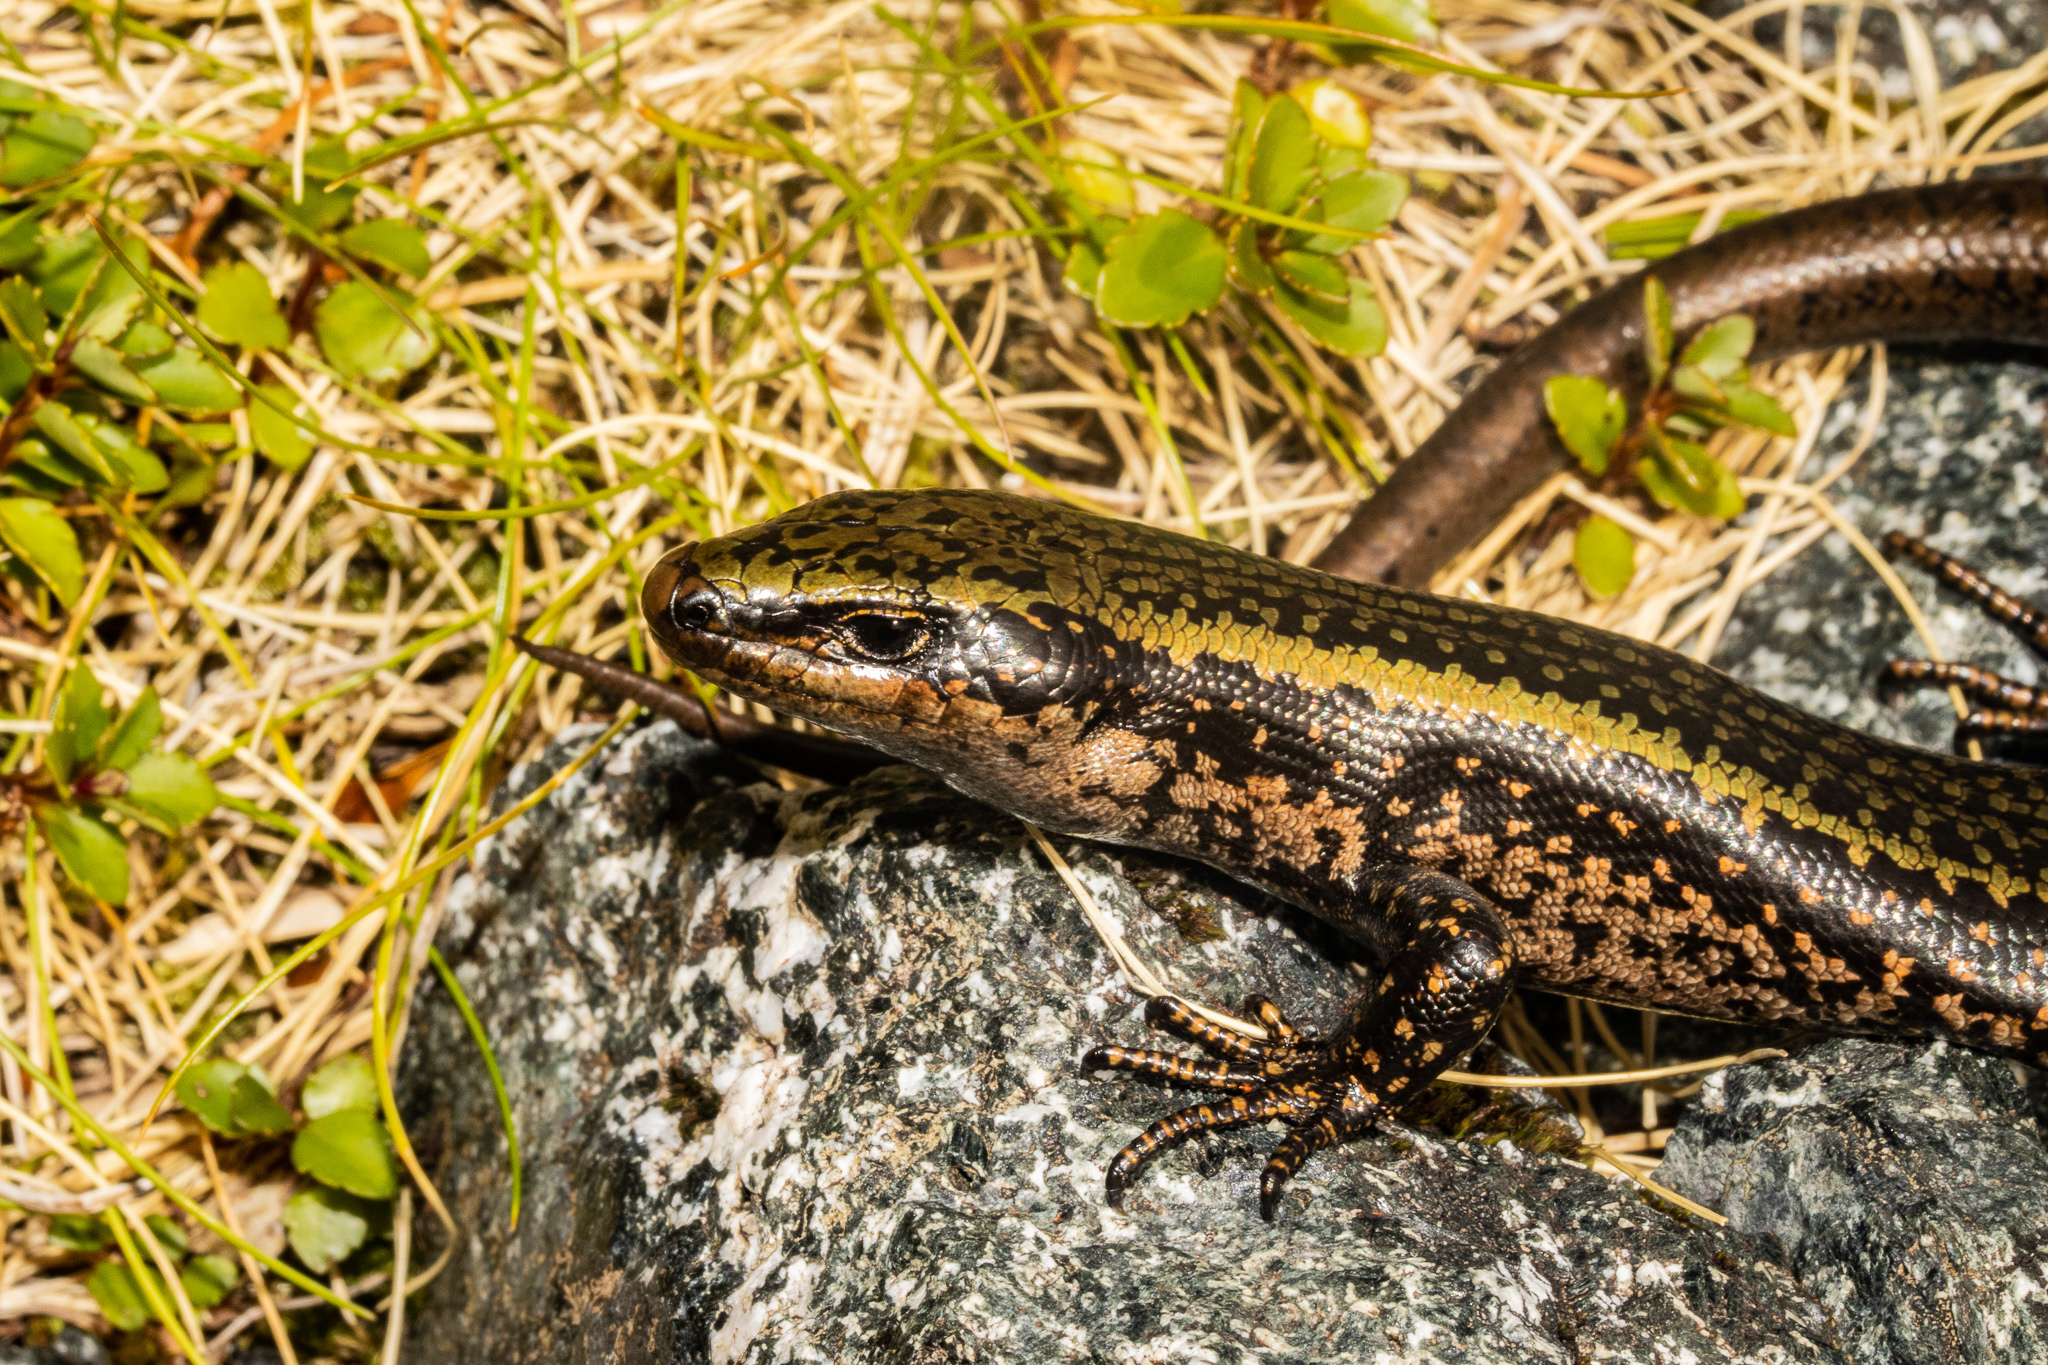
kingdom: Animalia
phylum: Chordata
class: Squamata
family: Scincidae
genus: Oligosoma
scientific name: Oligosoma pikitanga
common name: Sinbad skink
